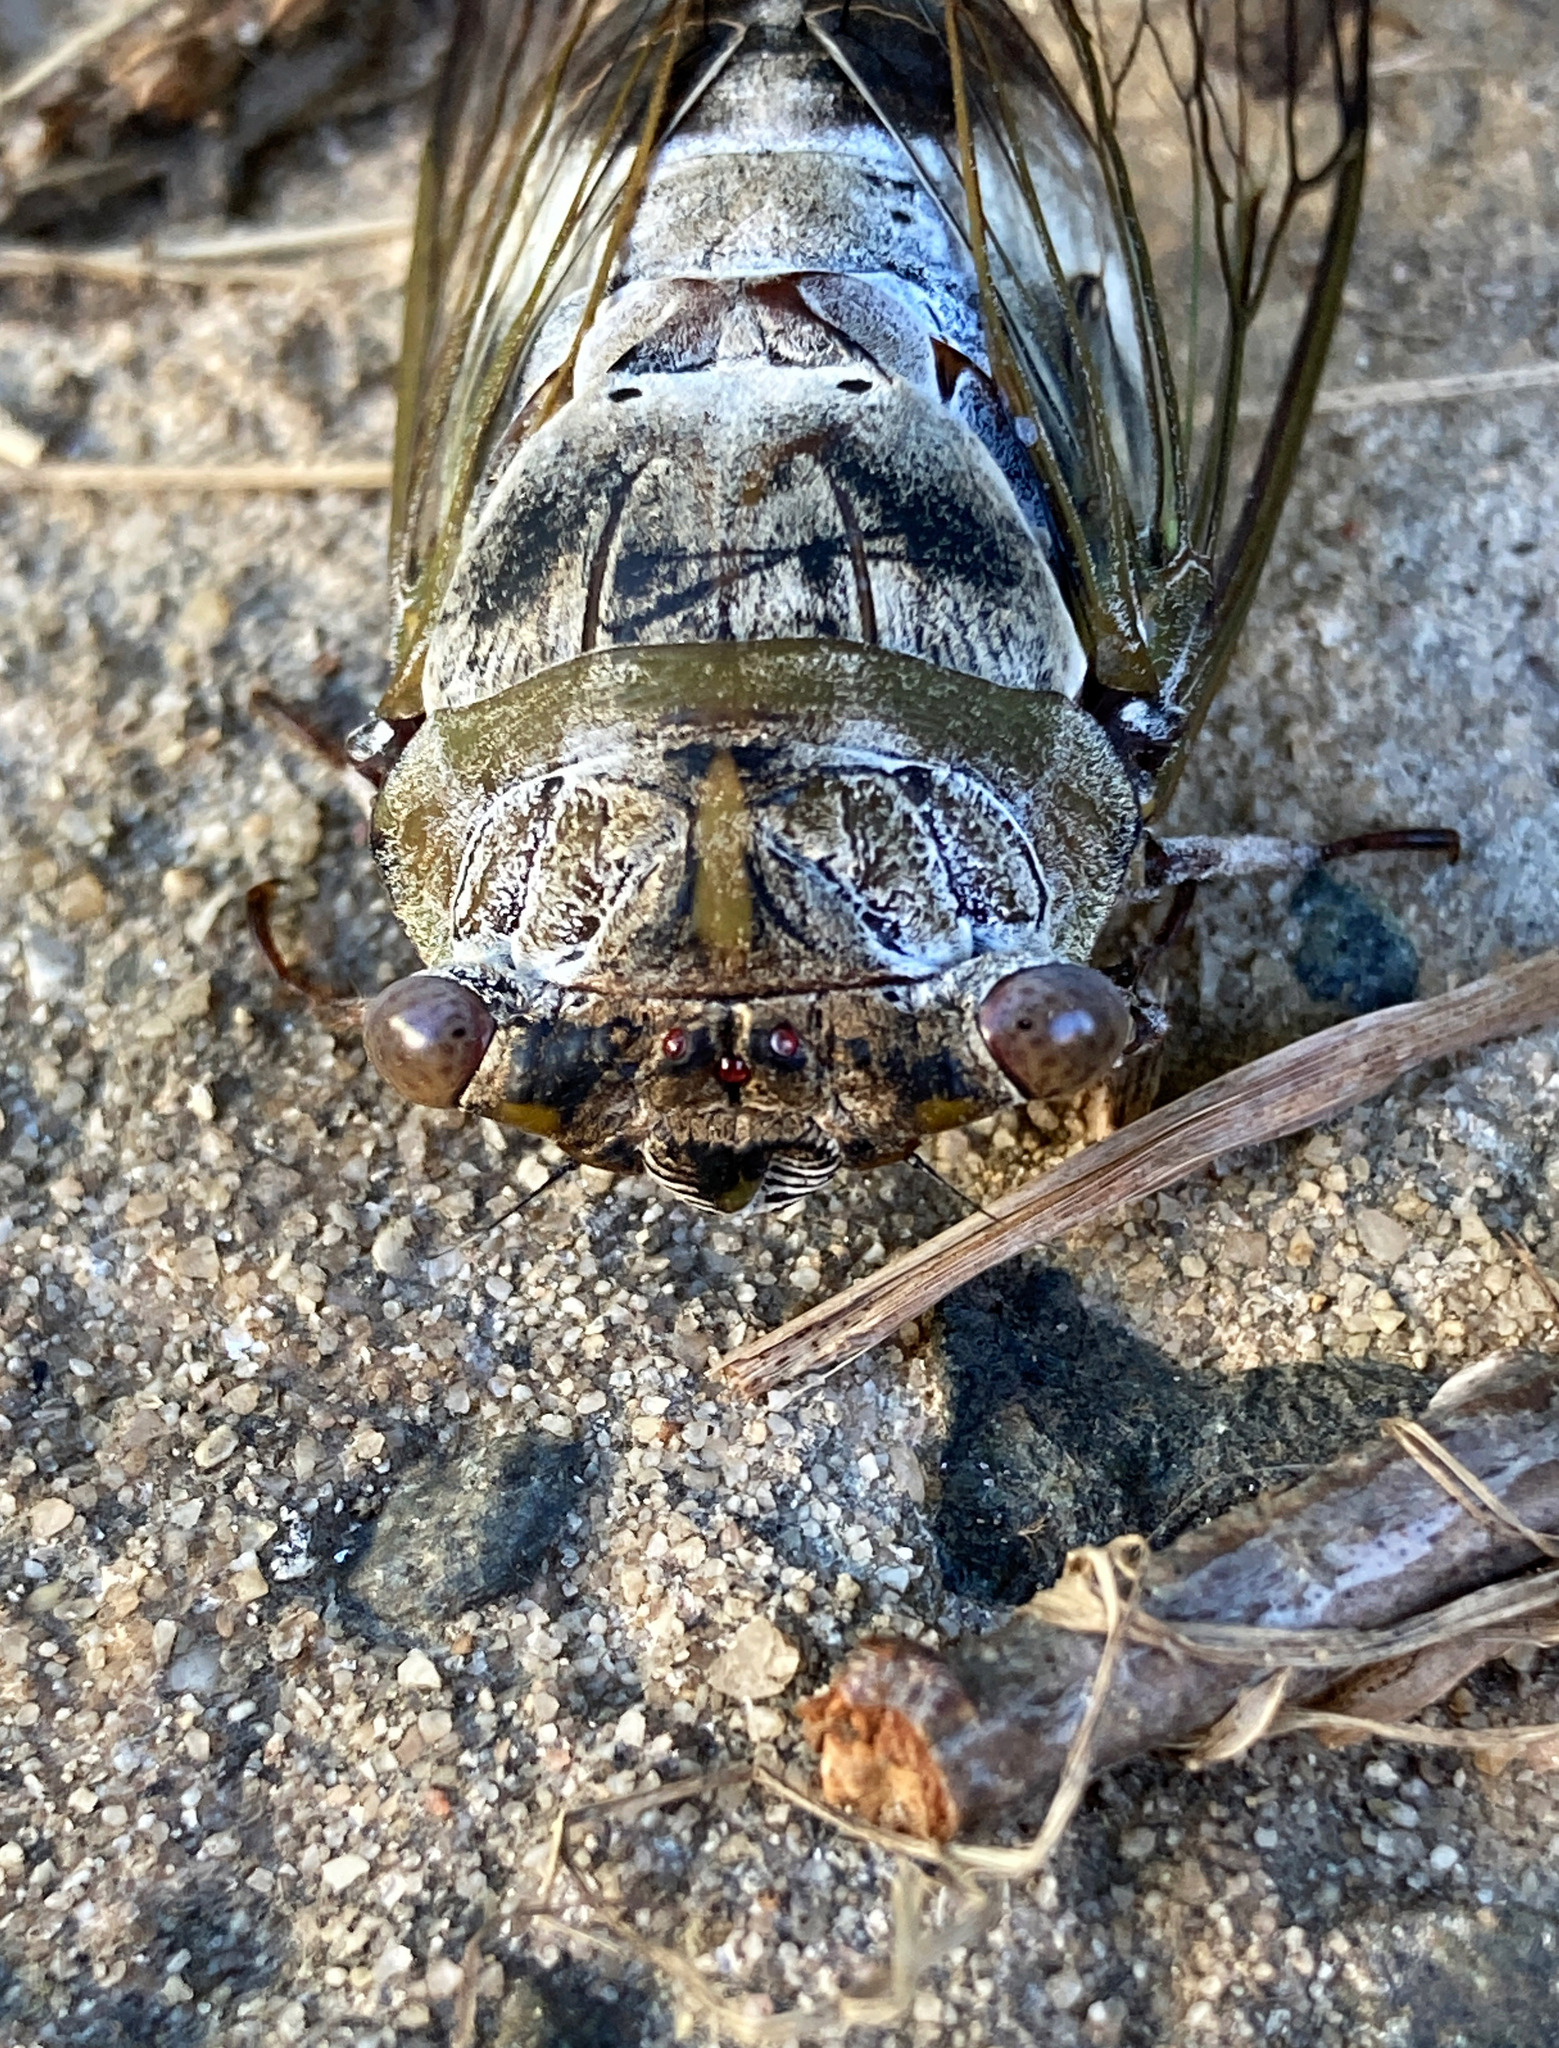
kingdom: Animalia
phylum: Arthropoda
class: Insecta
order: Hemiptera
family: Cicadidae
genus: Diceroprocta
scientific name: Diceroprocta grossa
